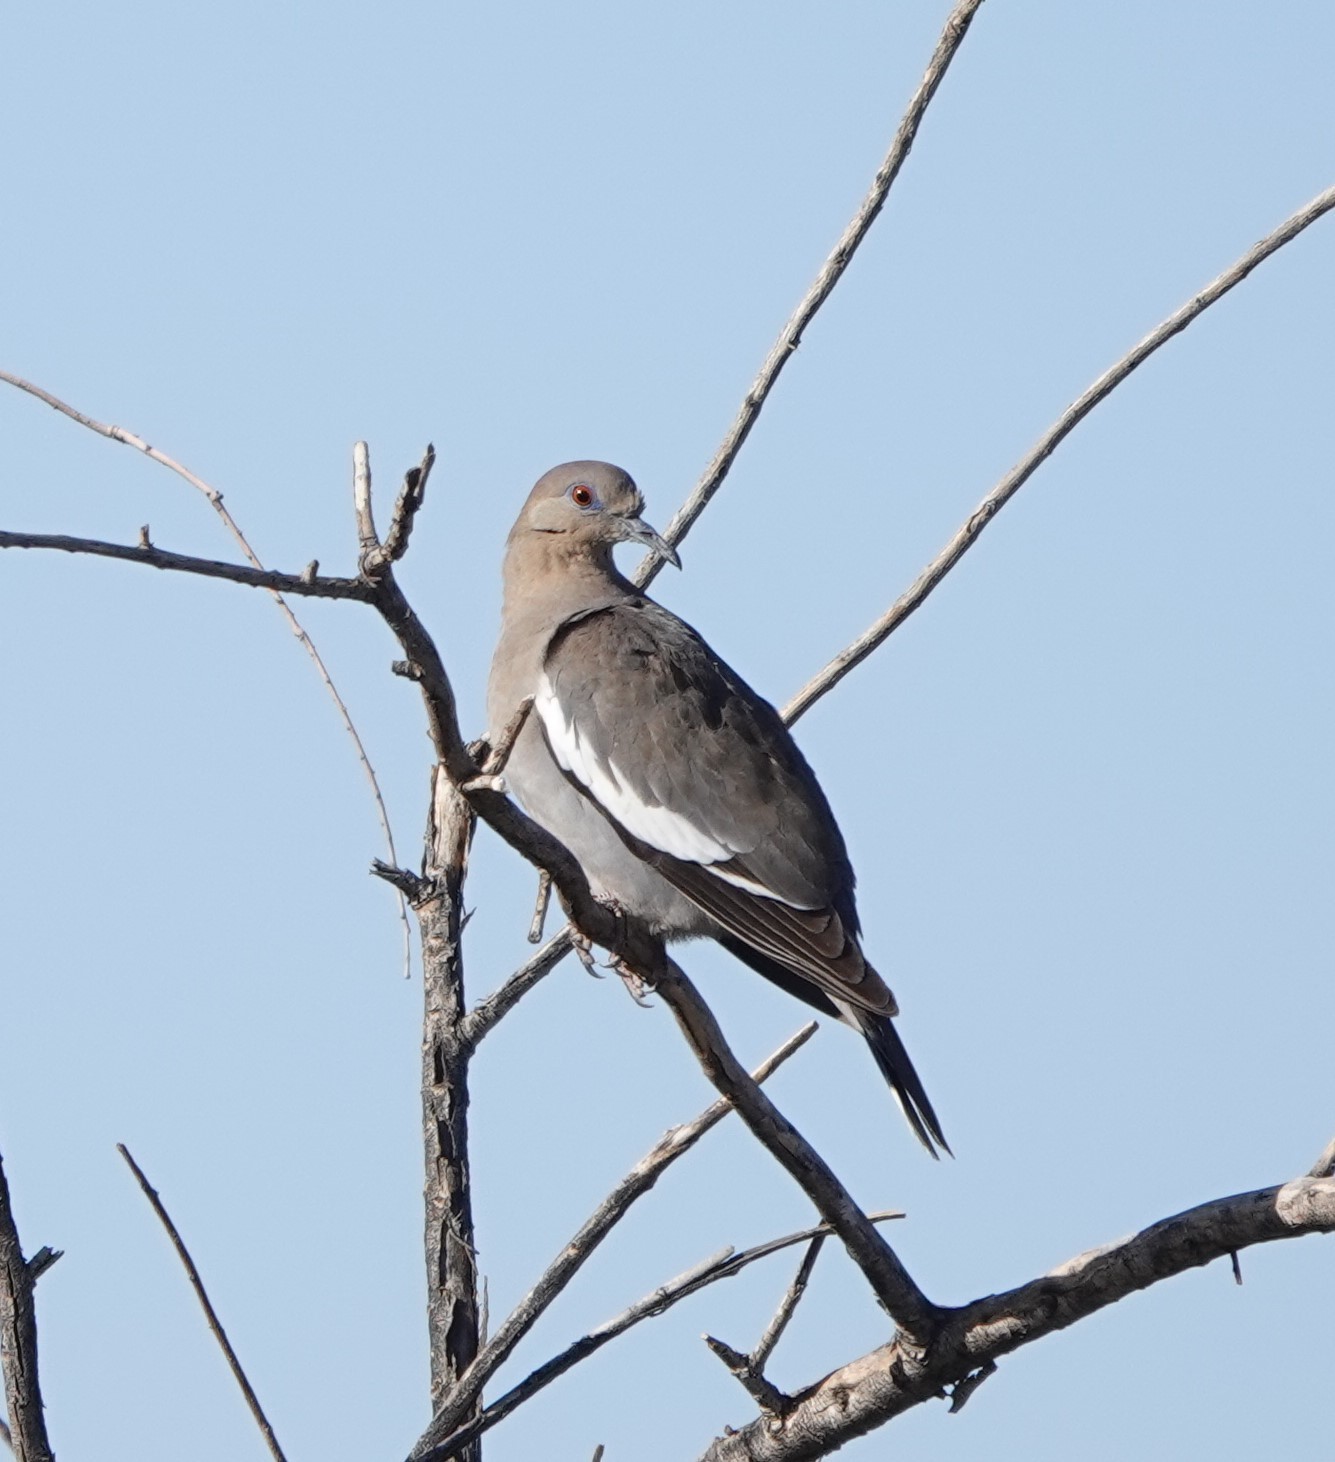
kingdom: Animalia
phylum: Chordata
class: Aves
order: Columbiformes
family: Columbidae
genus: Zenaida
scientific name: Zenaida asiatica
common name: White-winged dove
